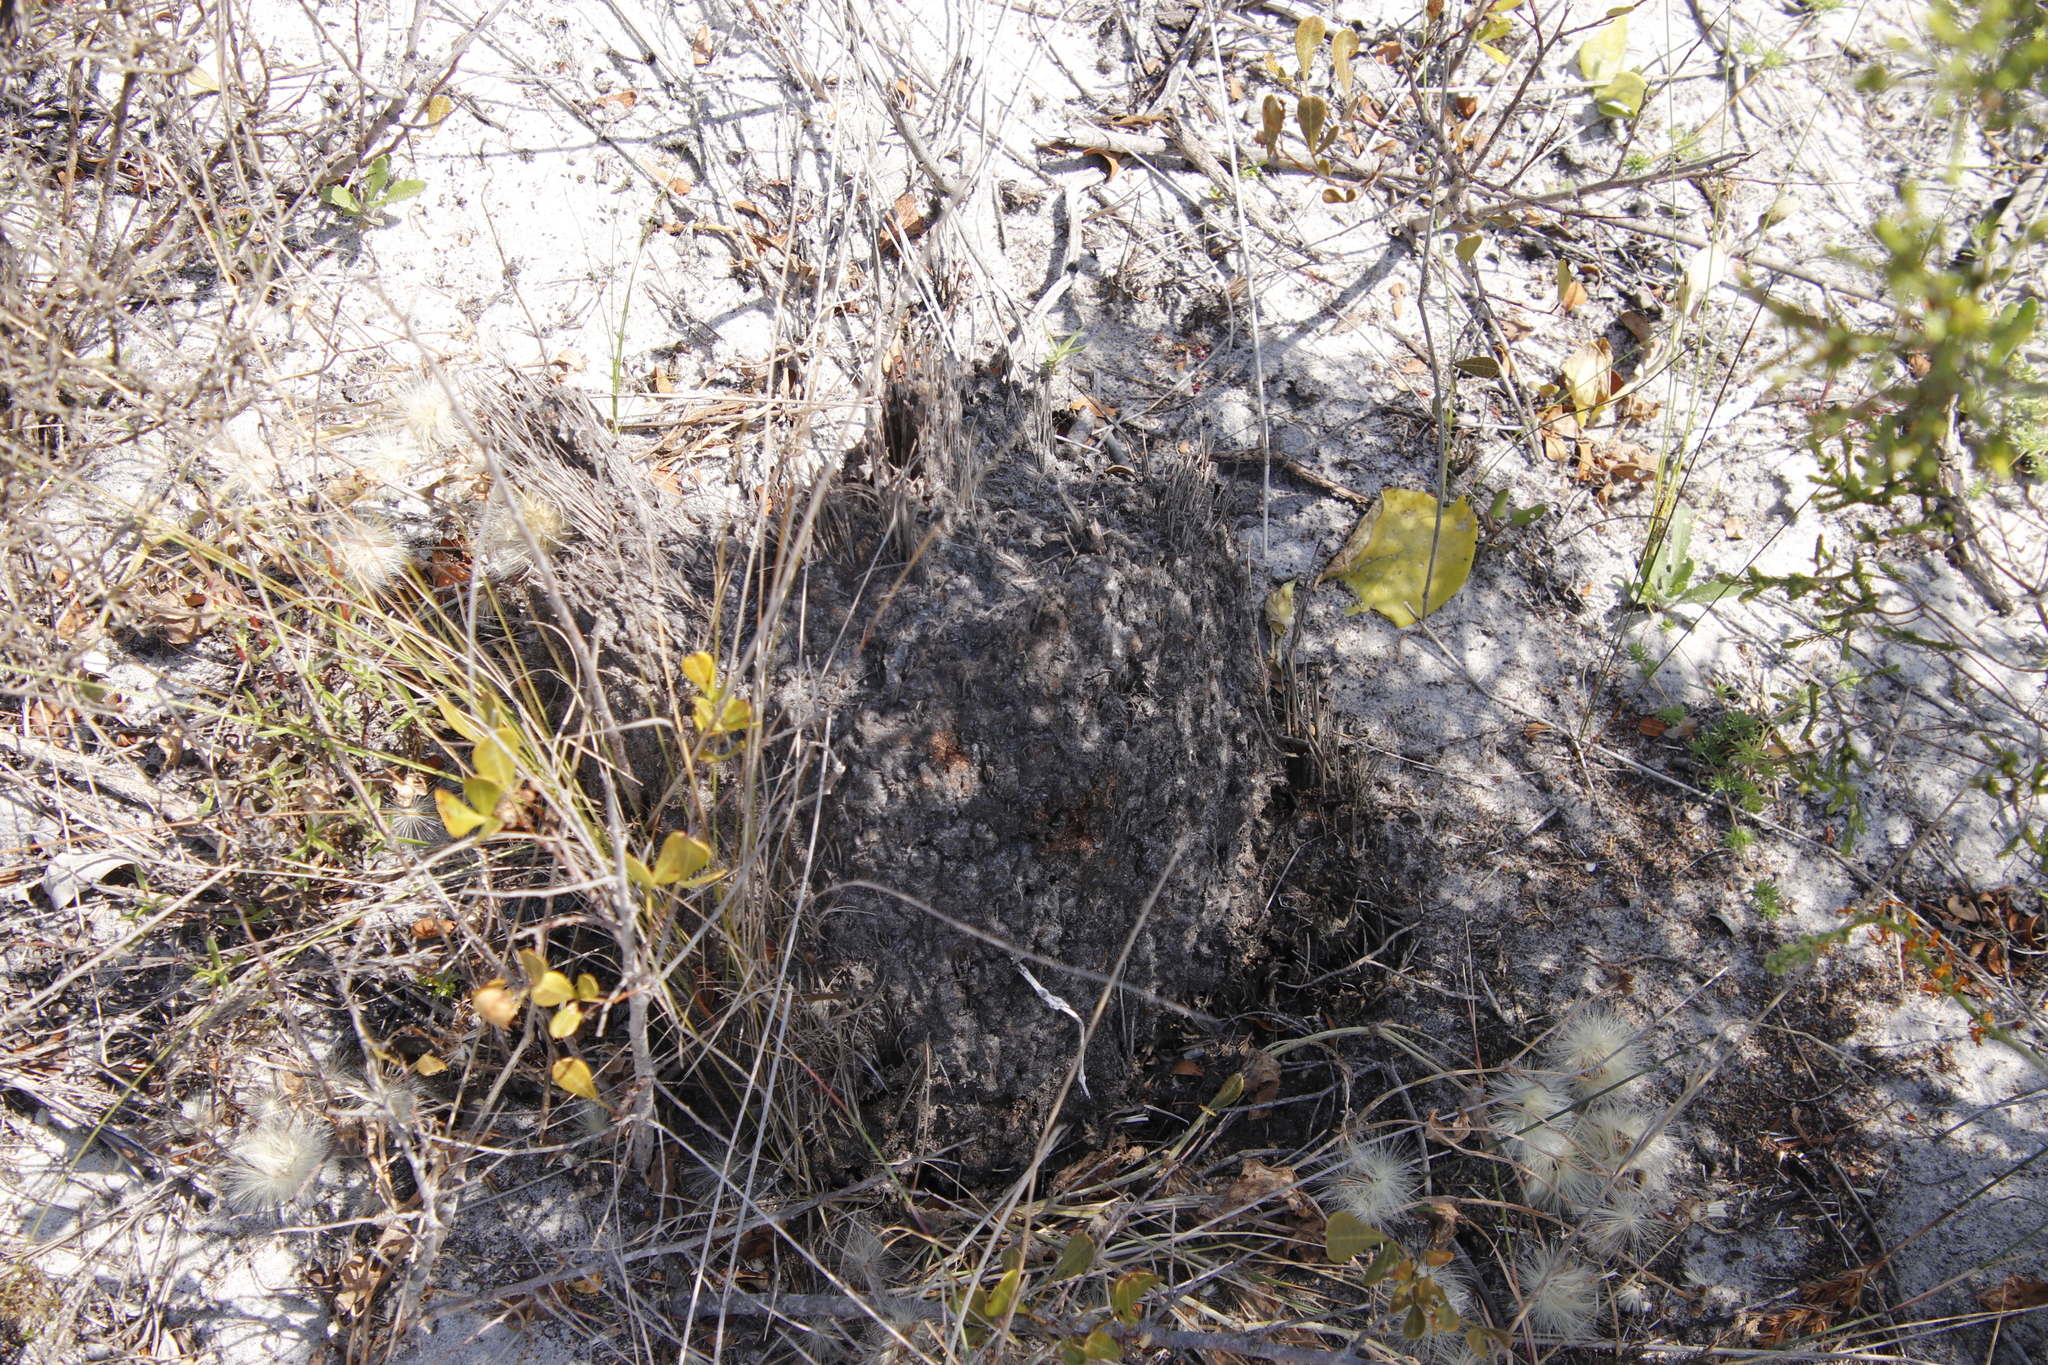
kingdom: Animalia
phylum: Arthropoda
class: Insecta
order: Hymenoptera
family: Formicidae
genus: Crematogaster
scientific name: Crematogaster peringueyi
